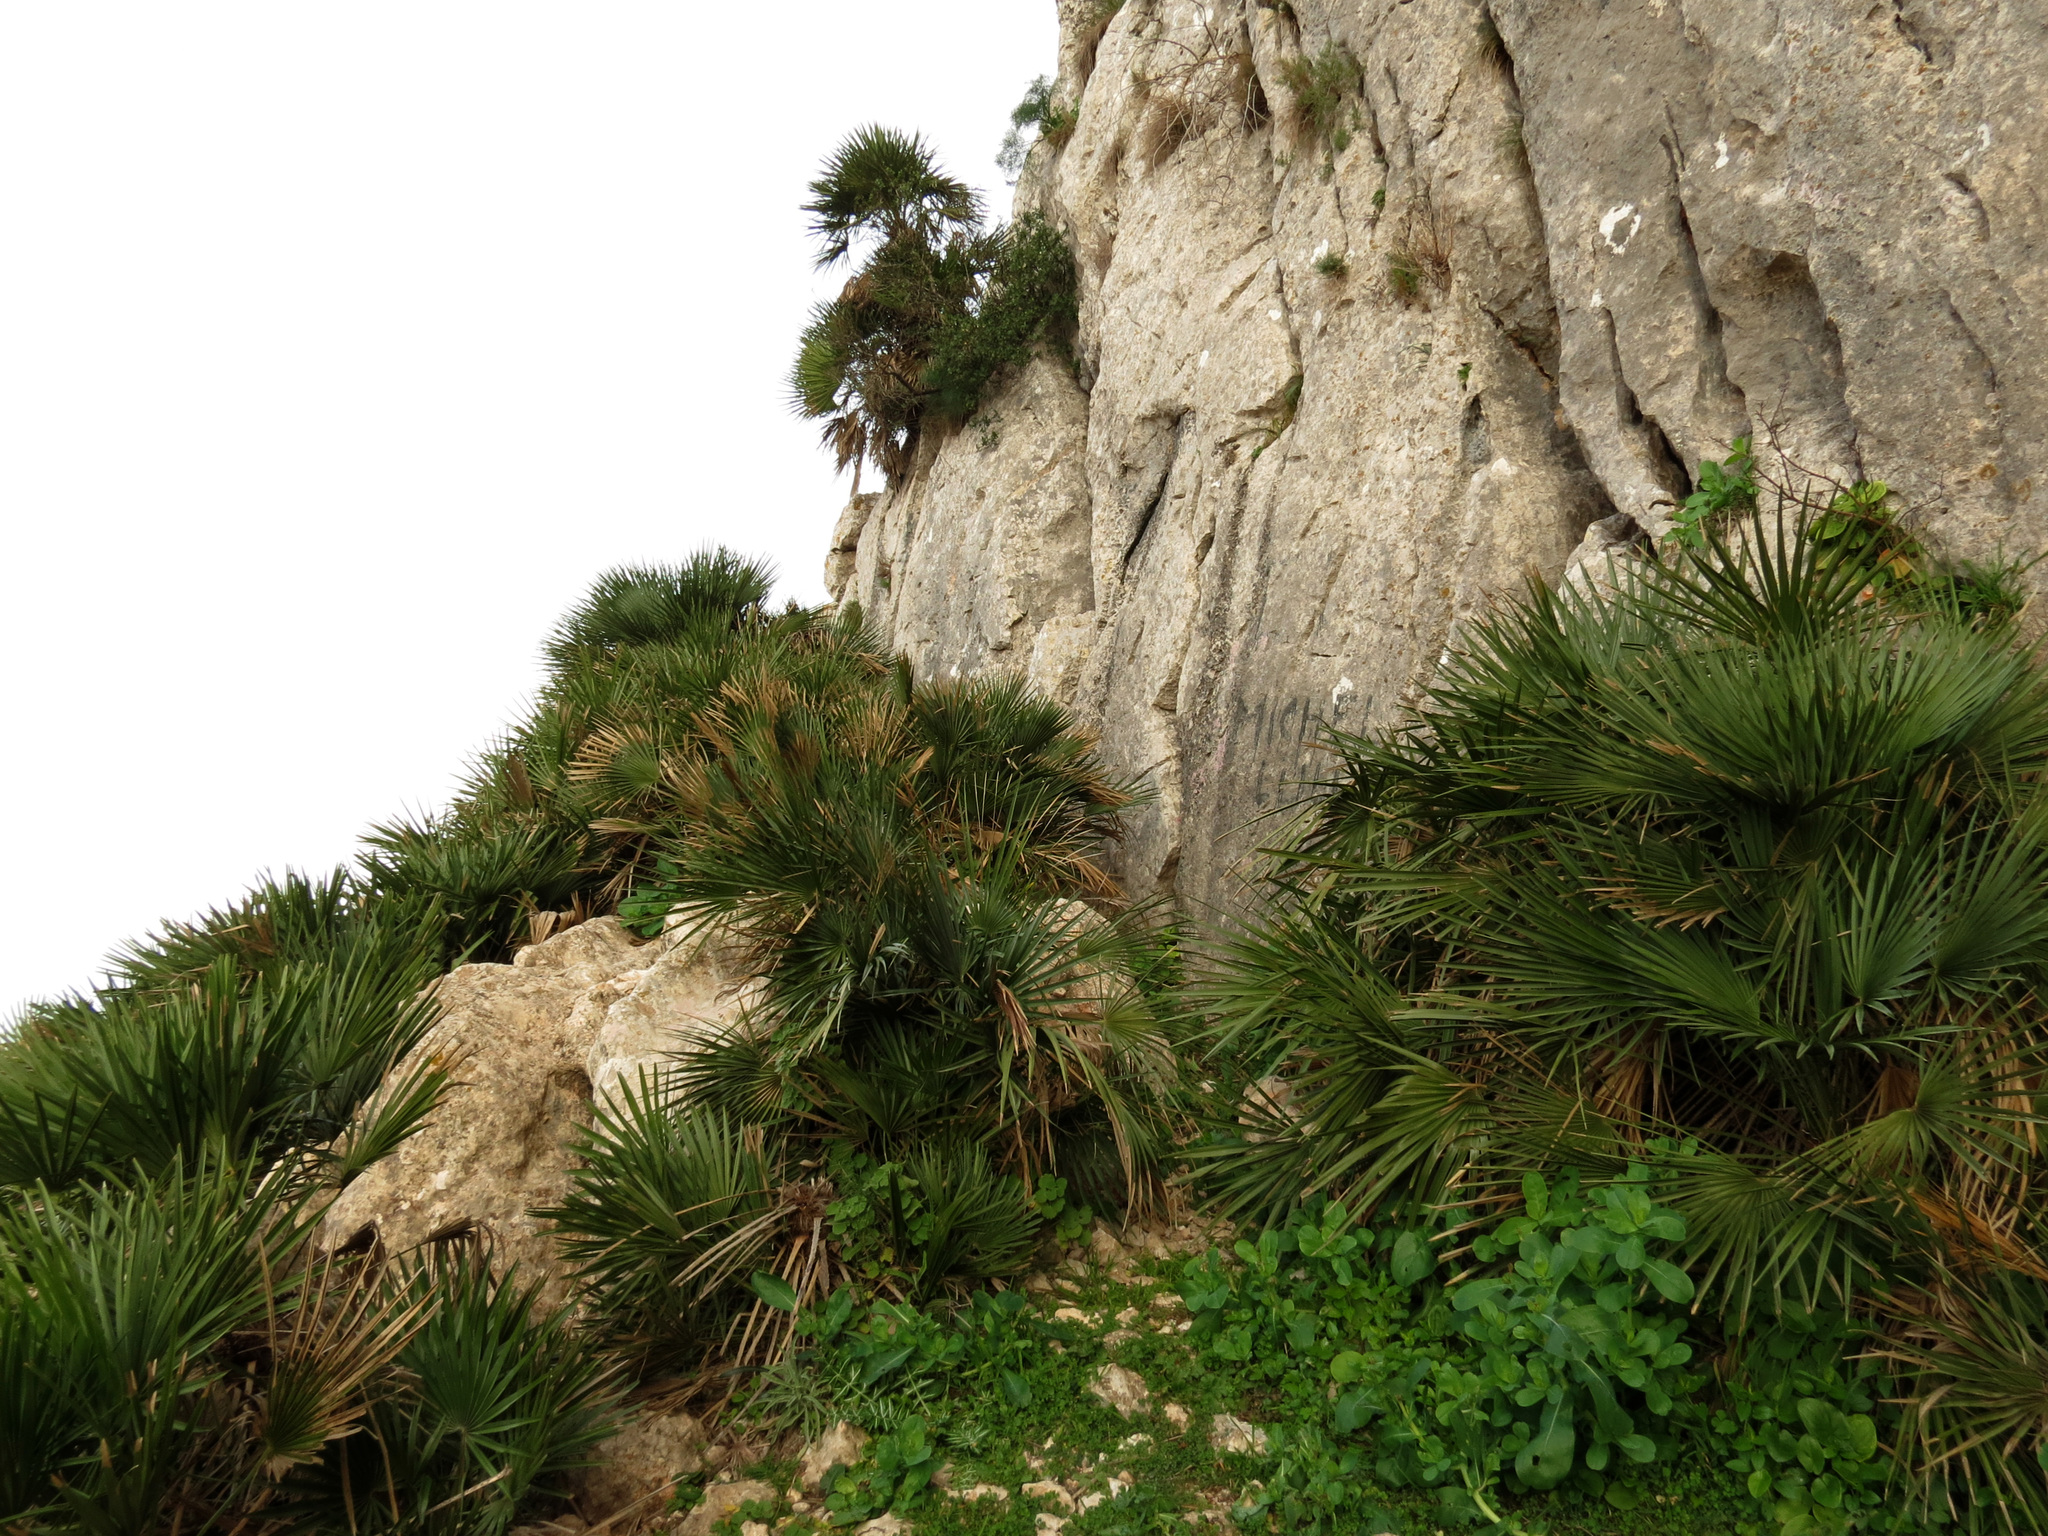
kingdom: Plantae
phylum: Tracheophyta
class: Liliopsida
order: Arecales
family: Arecaceae
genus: Chamaerops
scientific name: Chamaerops humilis
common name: Dwarf fan palm
